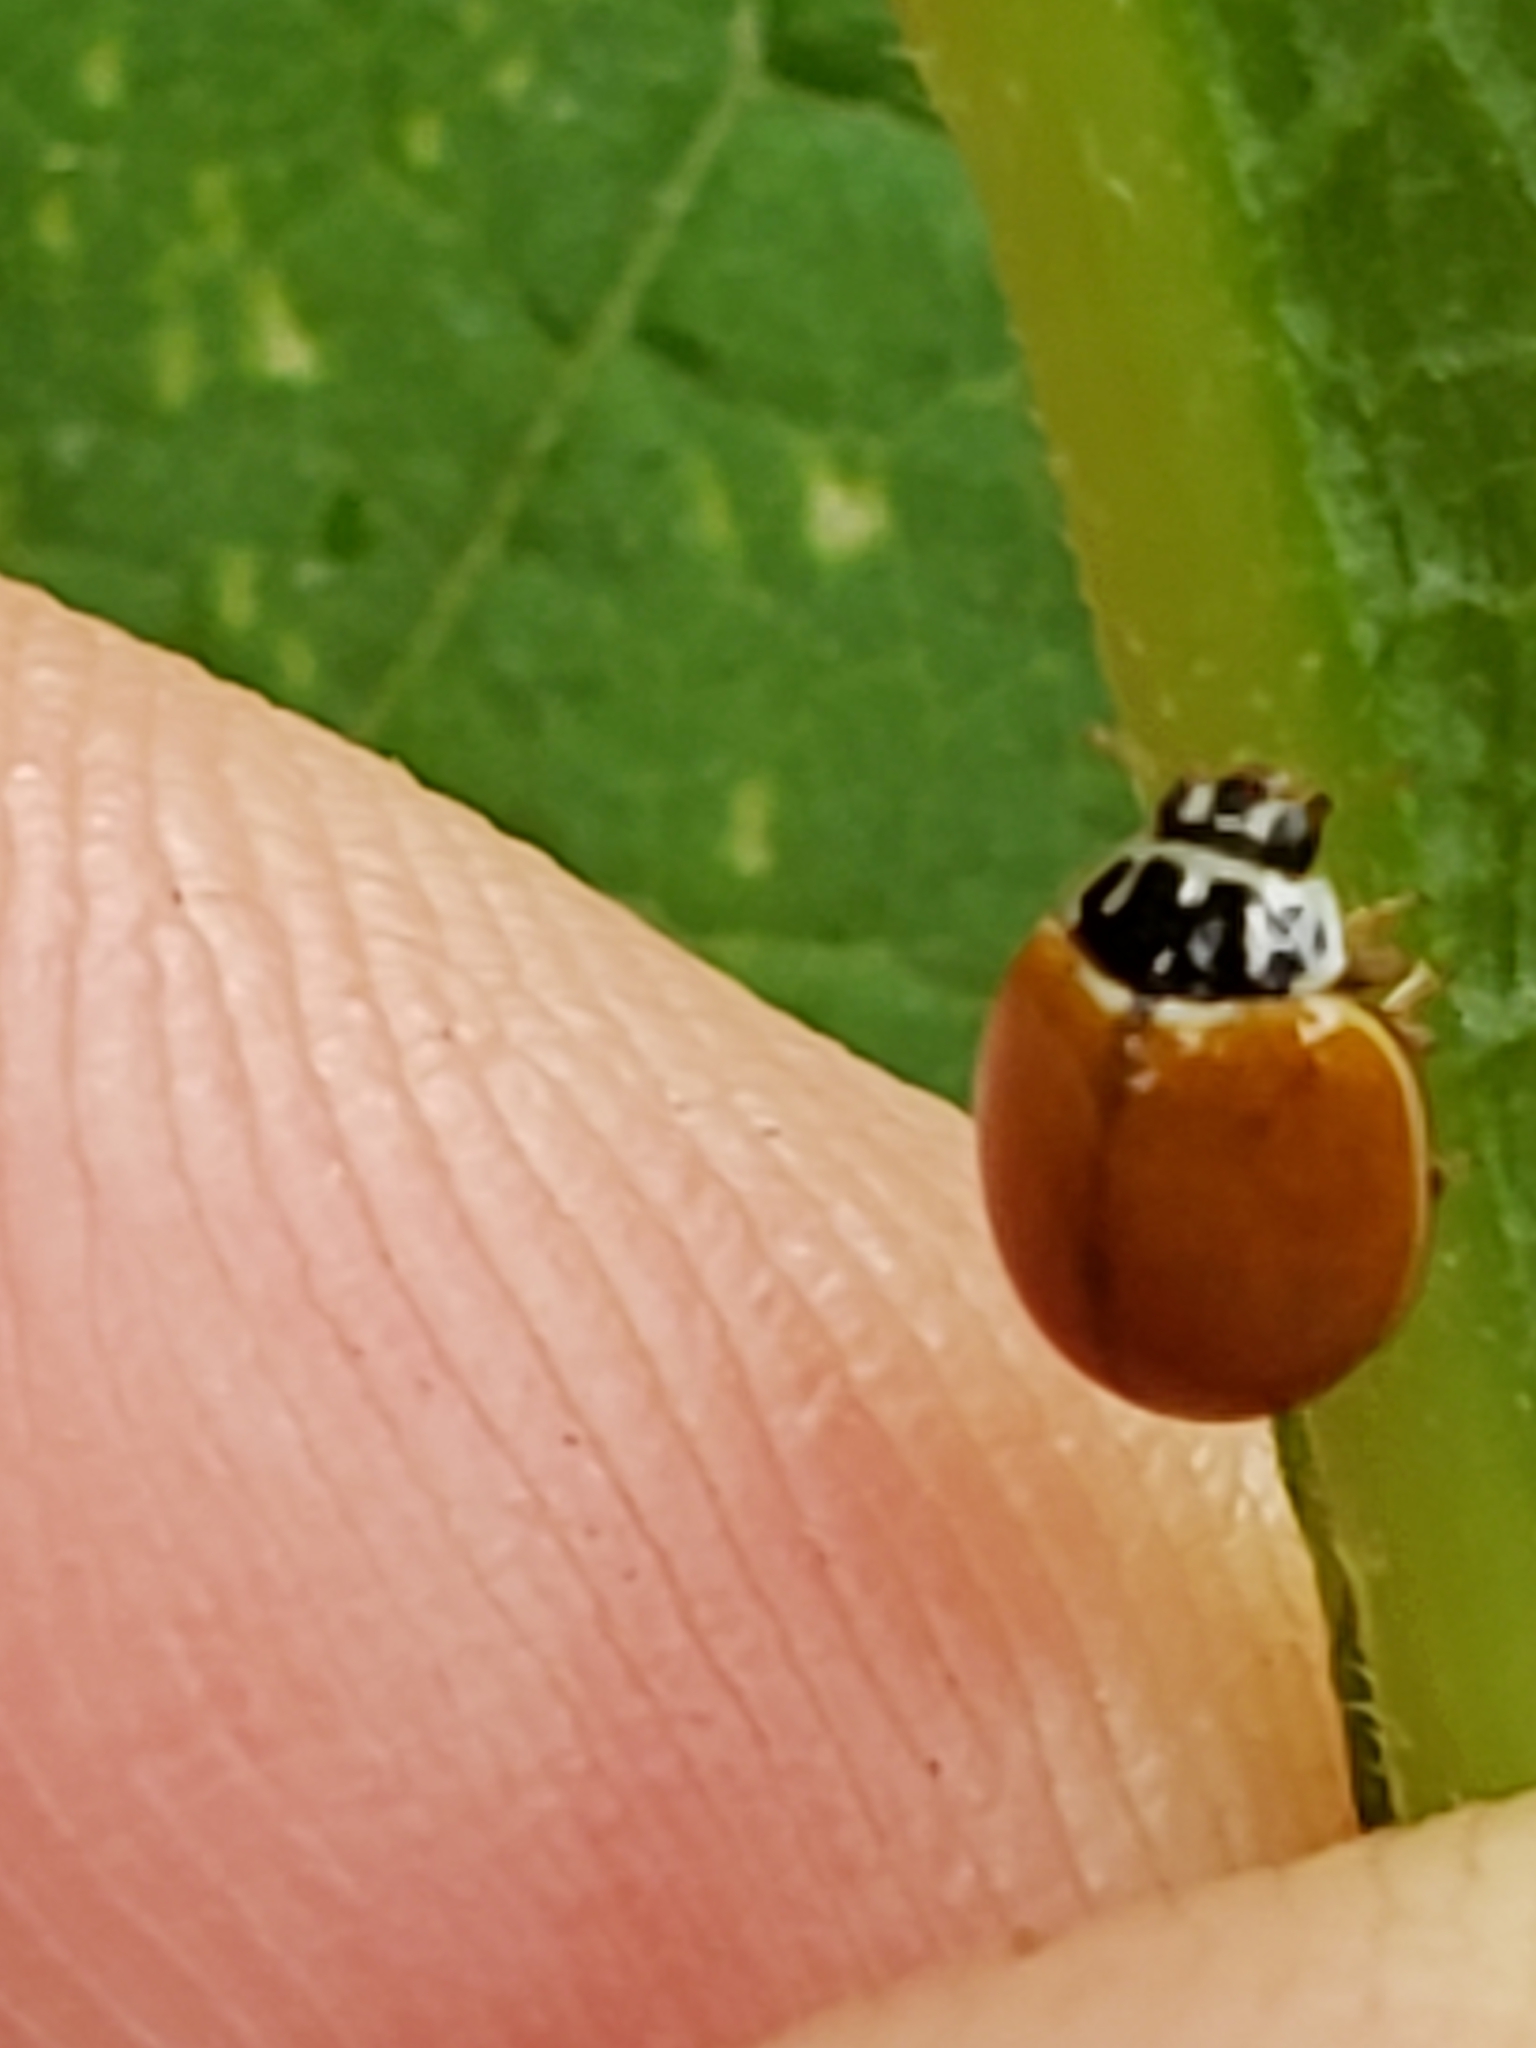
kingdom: Animalia
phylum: Arthropoda
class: Insecta
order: Coleoptera
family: Coccinellidae
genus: Cycloneda
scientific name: Cycloneda munda
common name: Polished lady beetle
